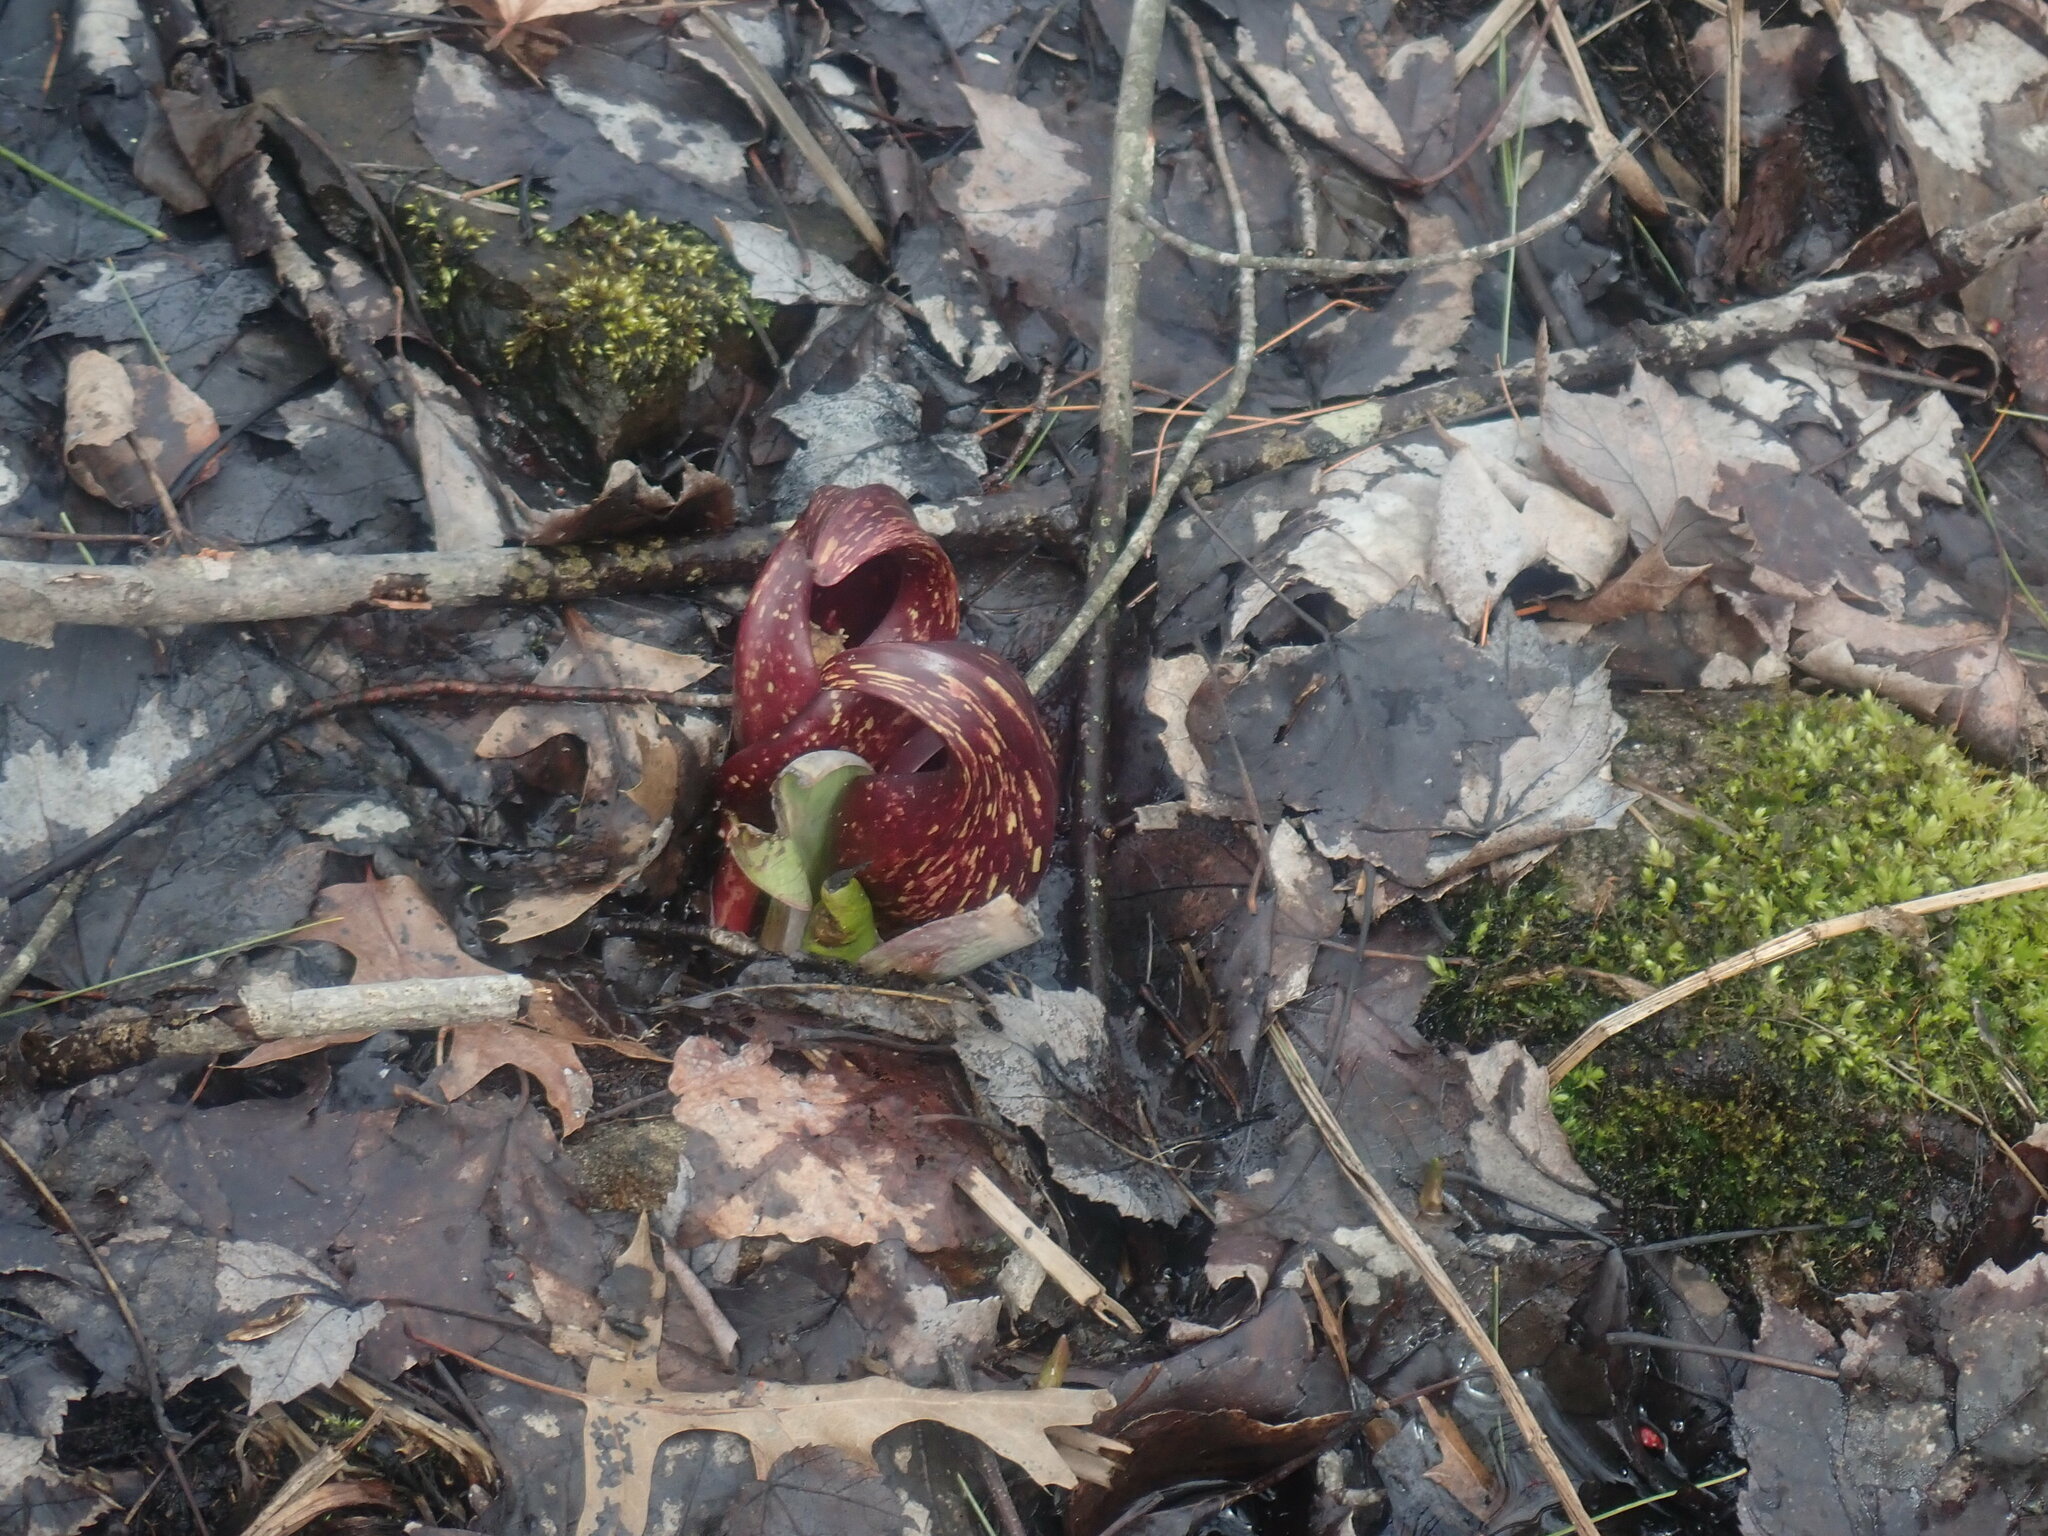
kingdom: Plantae
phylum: Tracheophyta
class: Liliopsida
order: Alismatales
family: Araceae
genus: Symplocarpus
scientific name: Symplocarpus foetidus
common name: Eastern skunk cabbage
